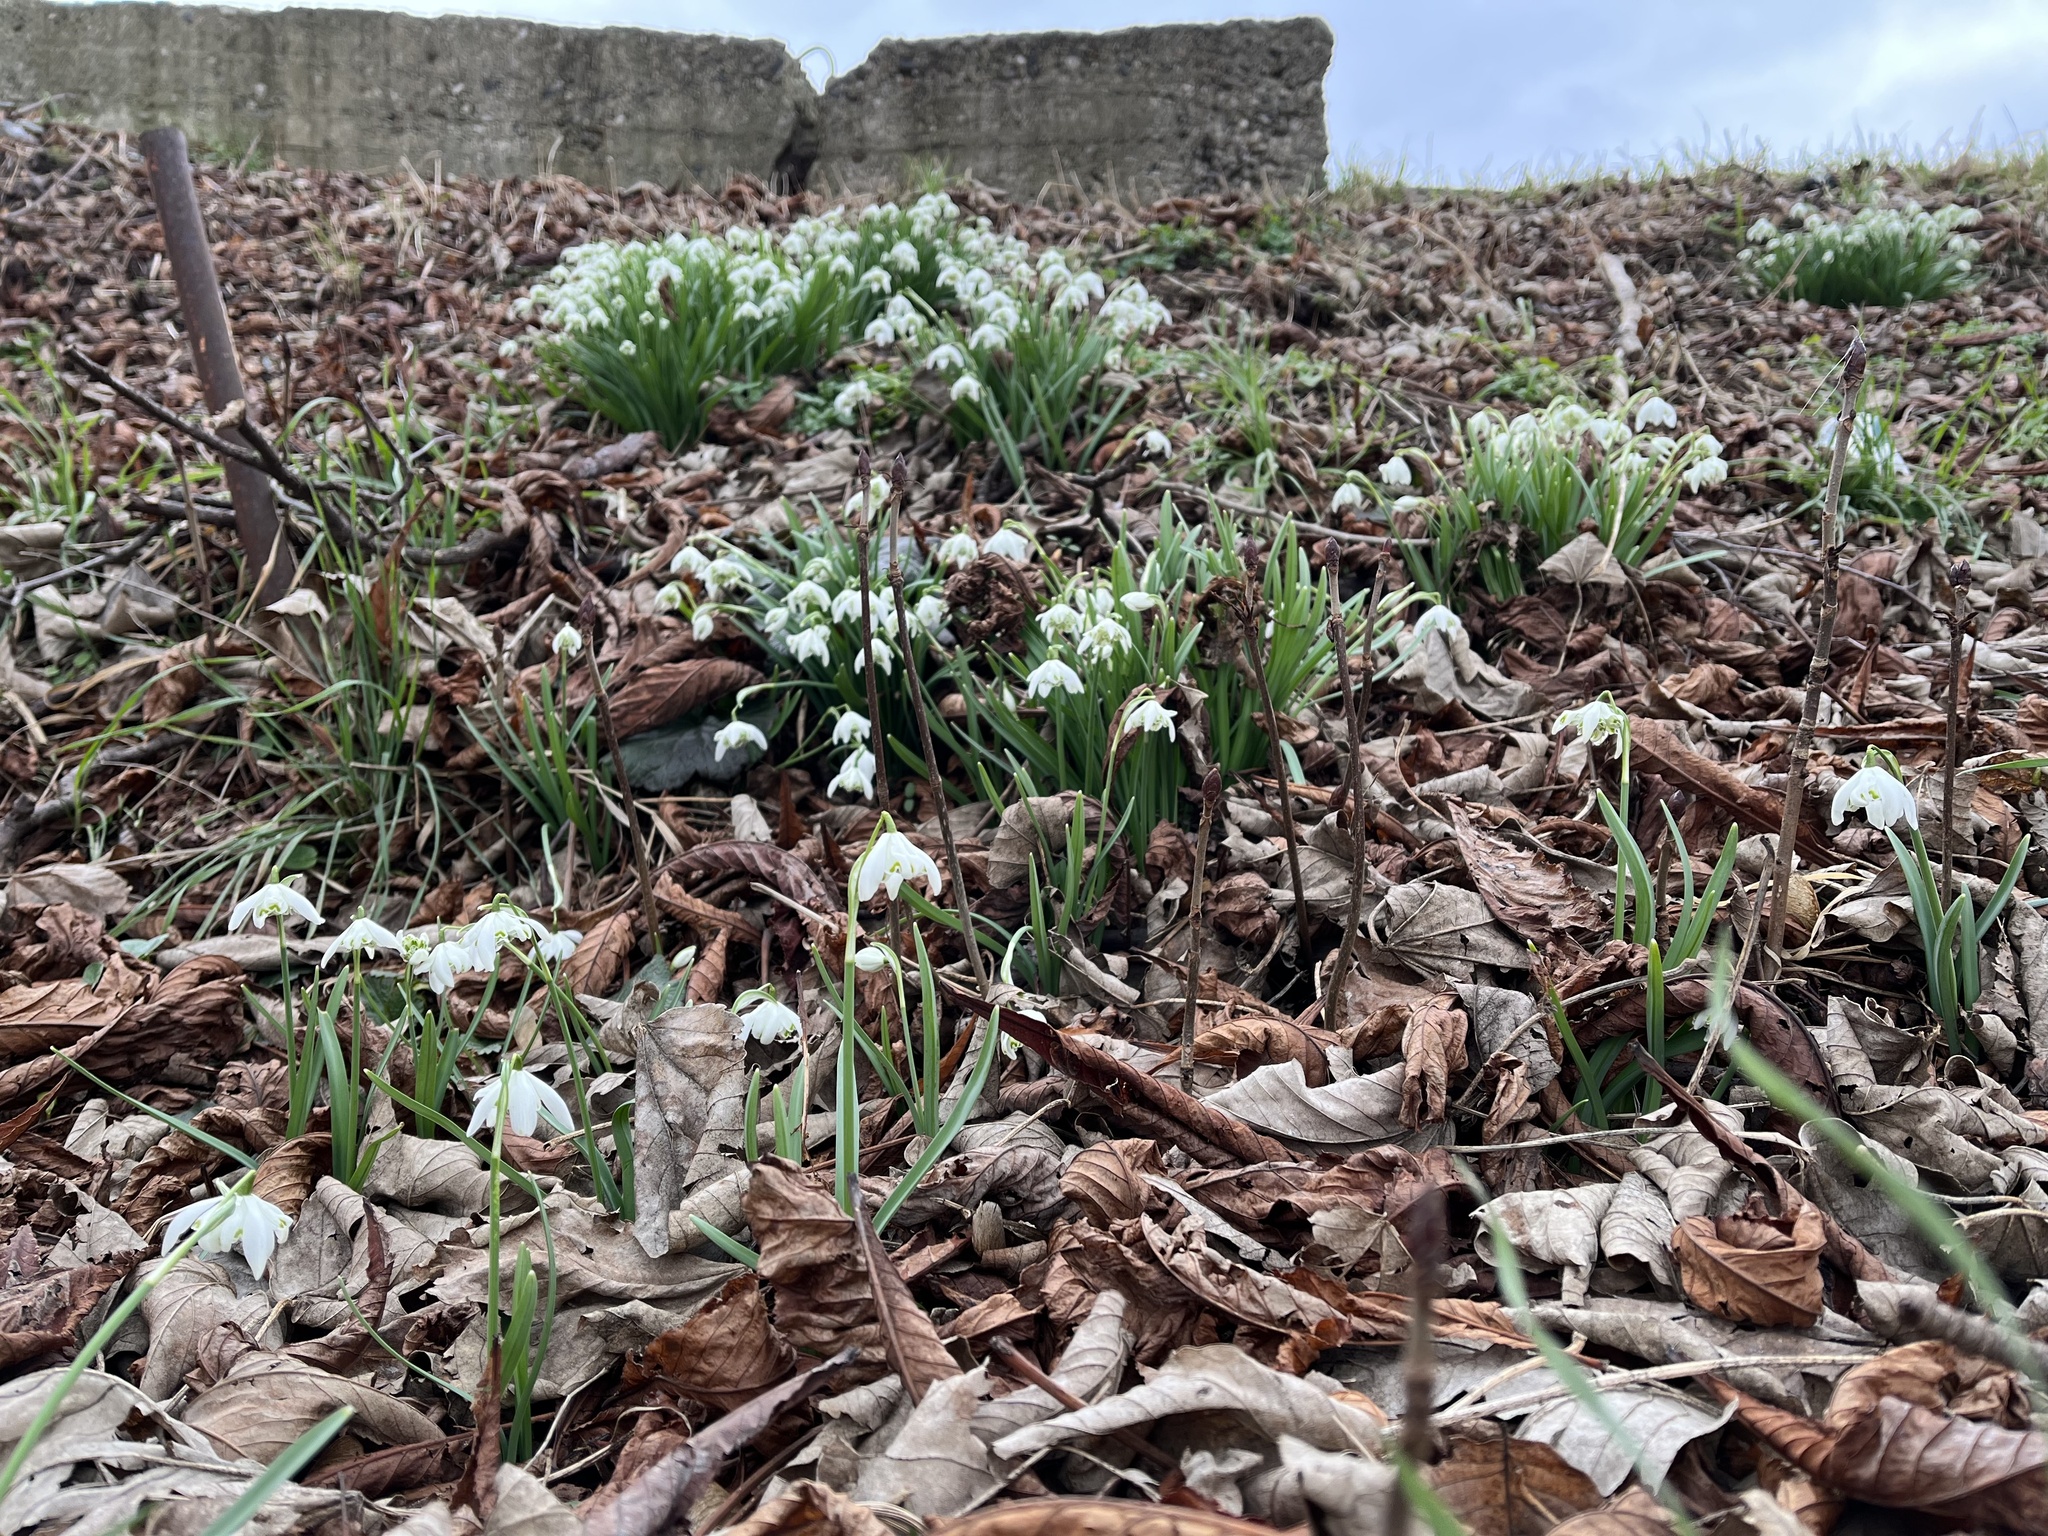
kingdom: Plantae
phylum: Tracheophyta
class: Liliopsida
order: Asparagales
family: Amaryllidaceae
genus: Galanthus
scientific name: Galanthus nivalis
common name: Snowdrop
